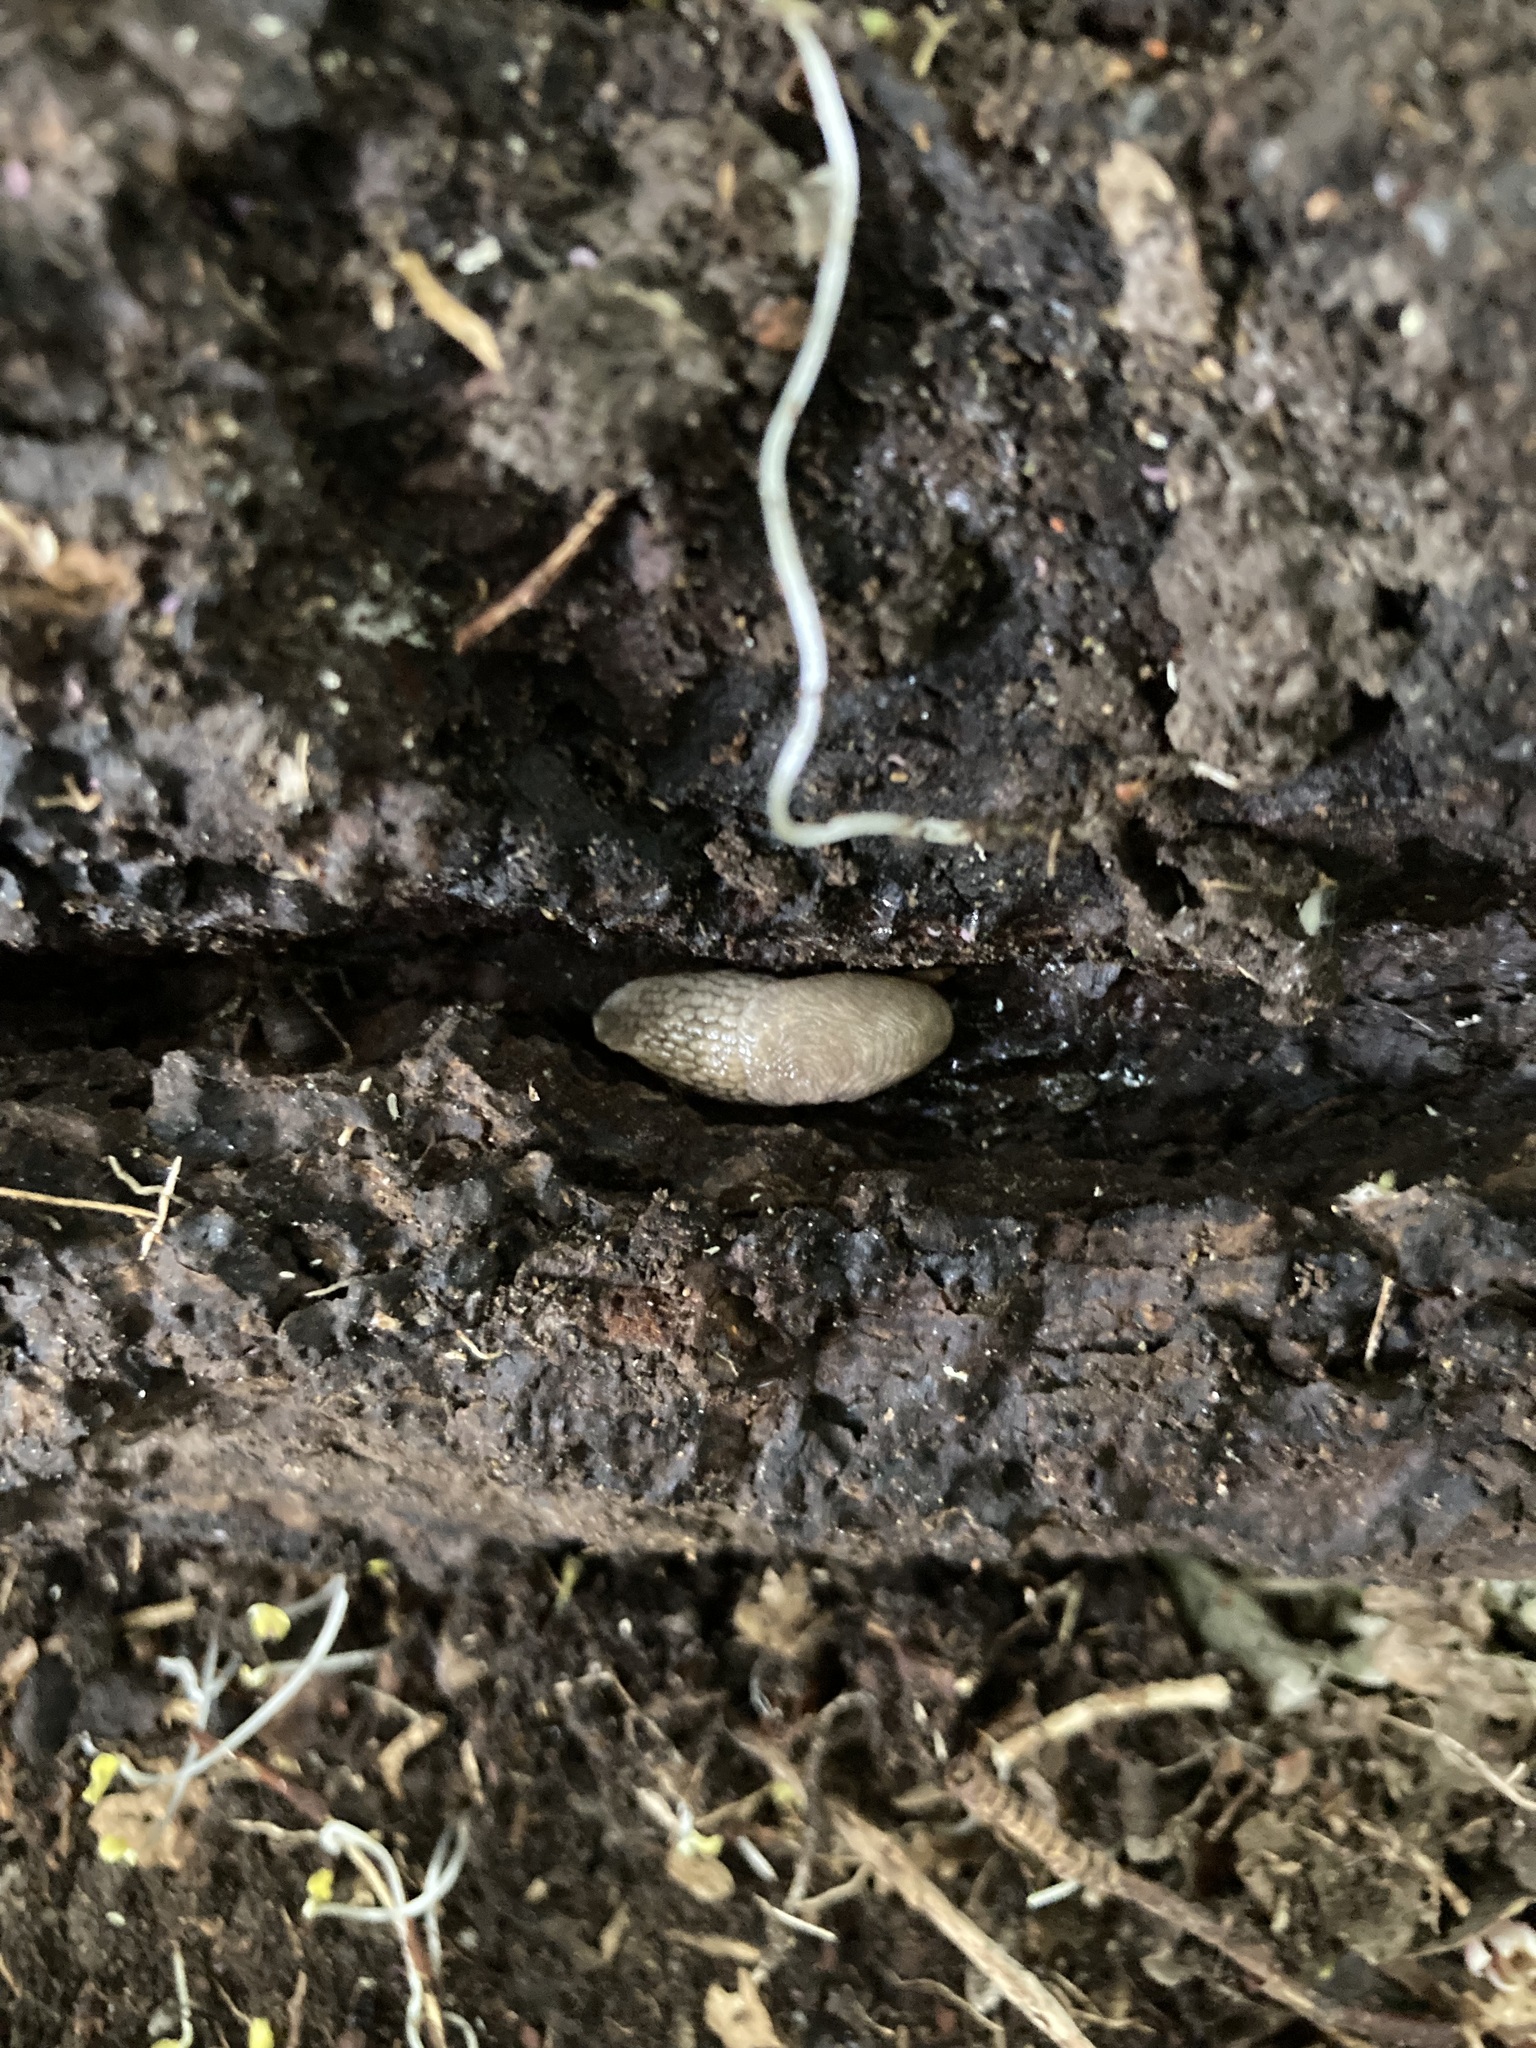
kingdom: Animalia
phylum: Mollusca
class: Gastropoda
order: Stylommatophora
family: Agriolimacidae
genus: Deroceras
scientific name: Deroceras reticulatum
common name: Gray field slug
